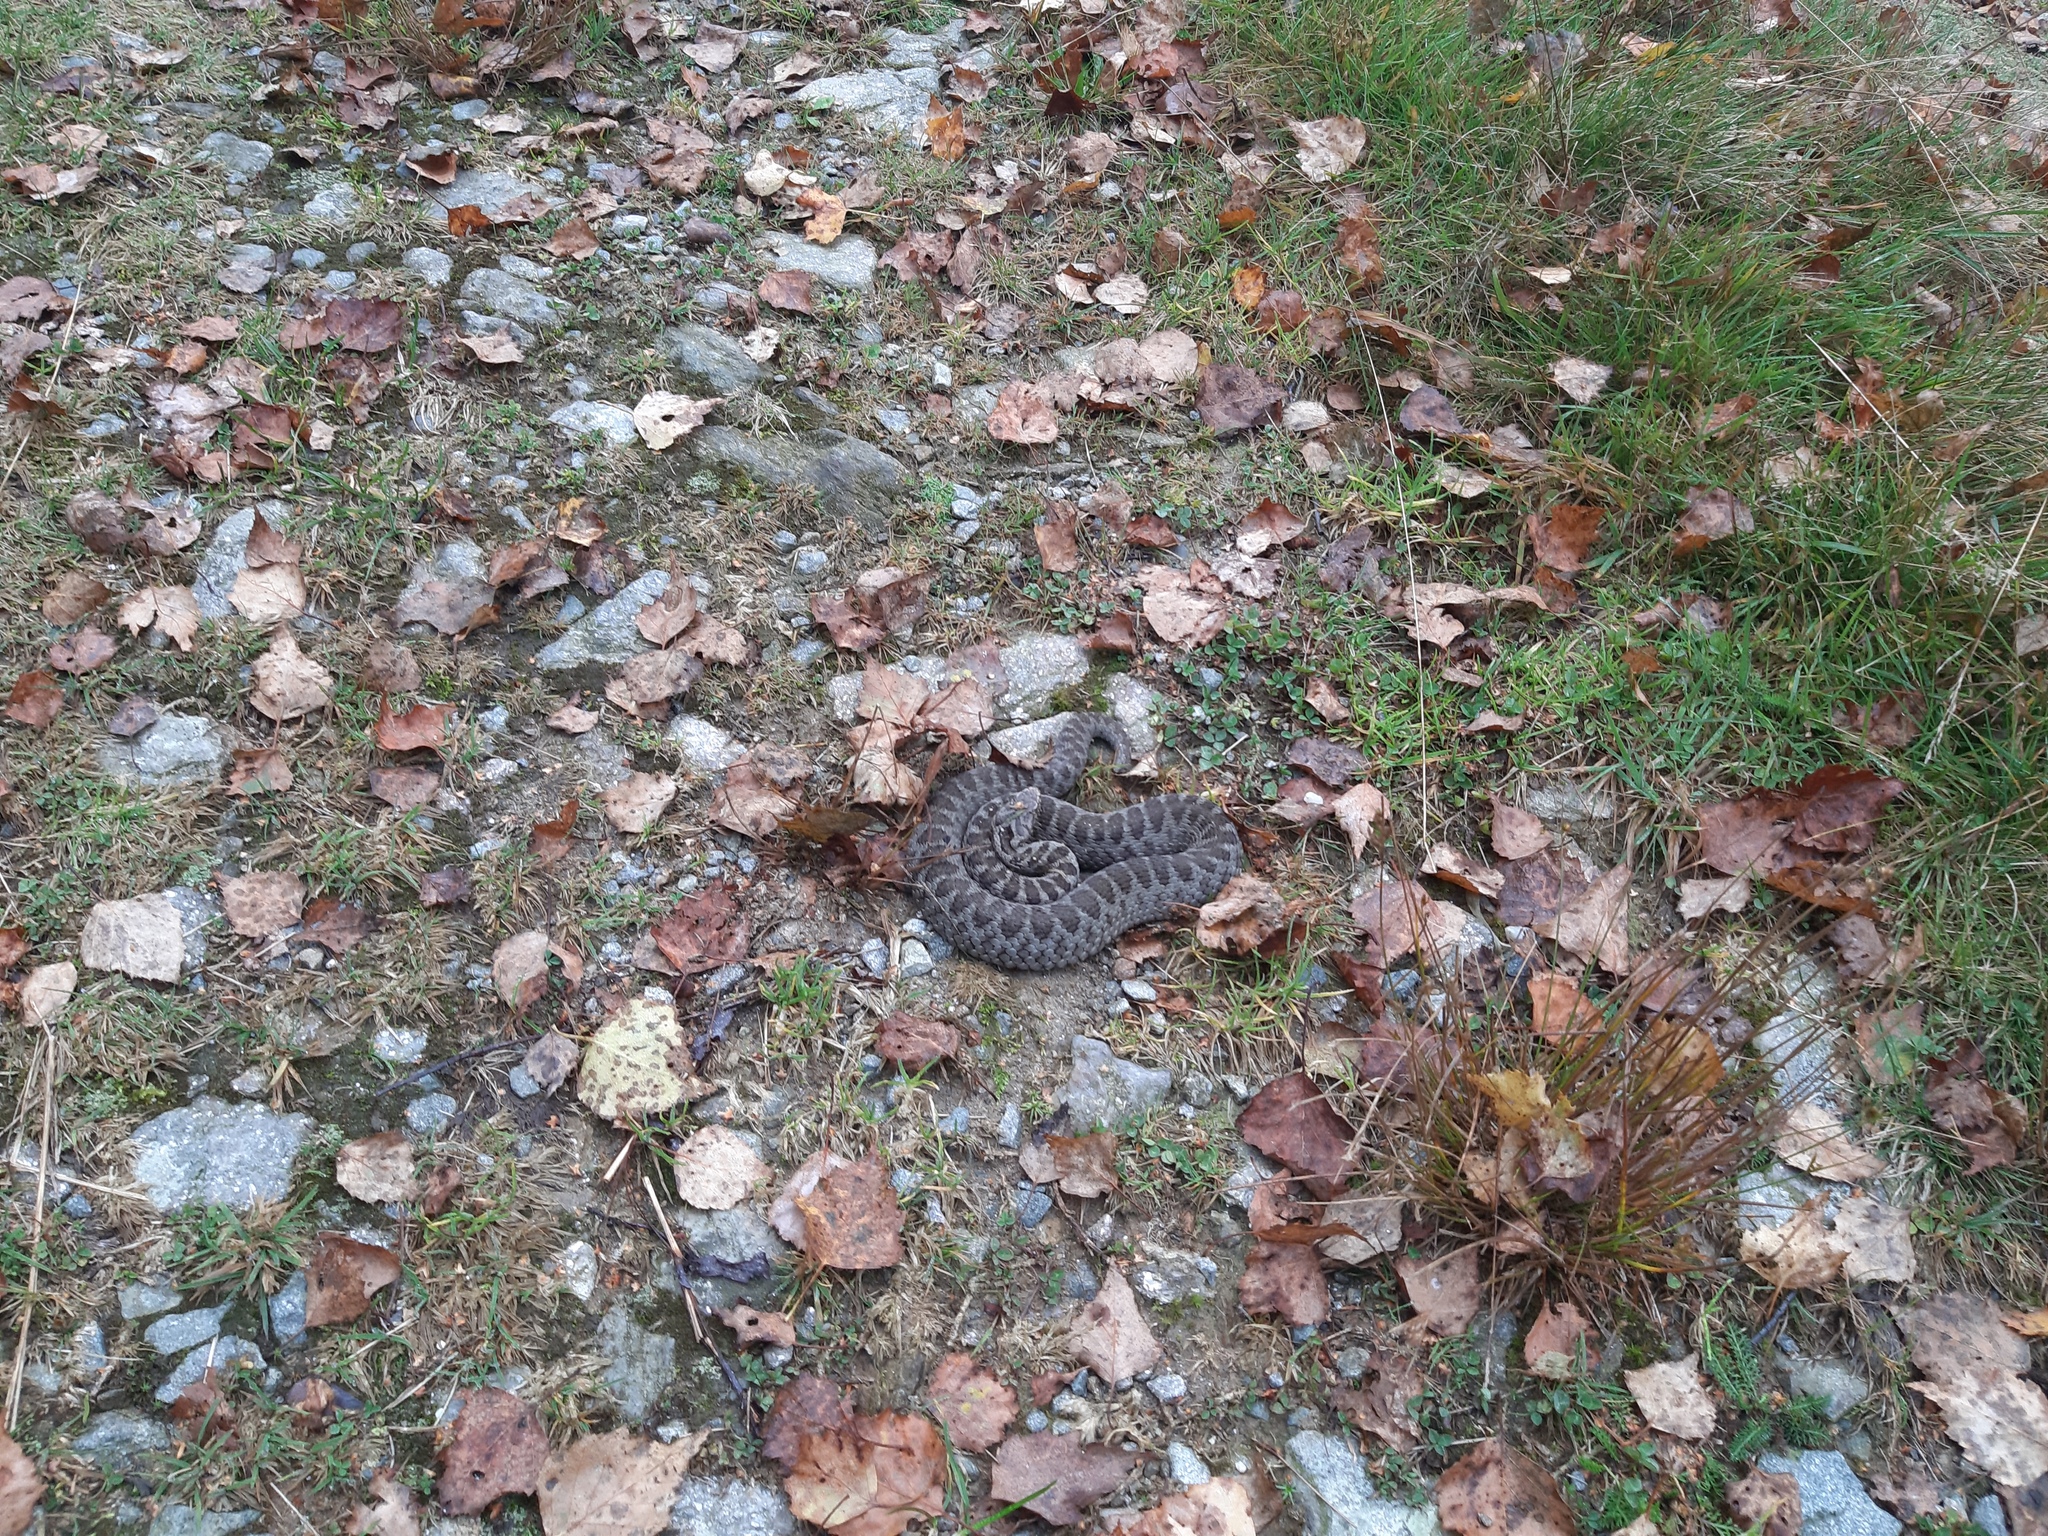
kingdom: Animalia
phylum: Chordata
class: Squamata
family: Viperidae
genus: Vipera
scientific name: Vipera walser
